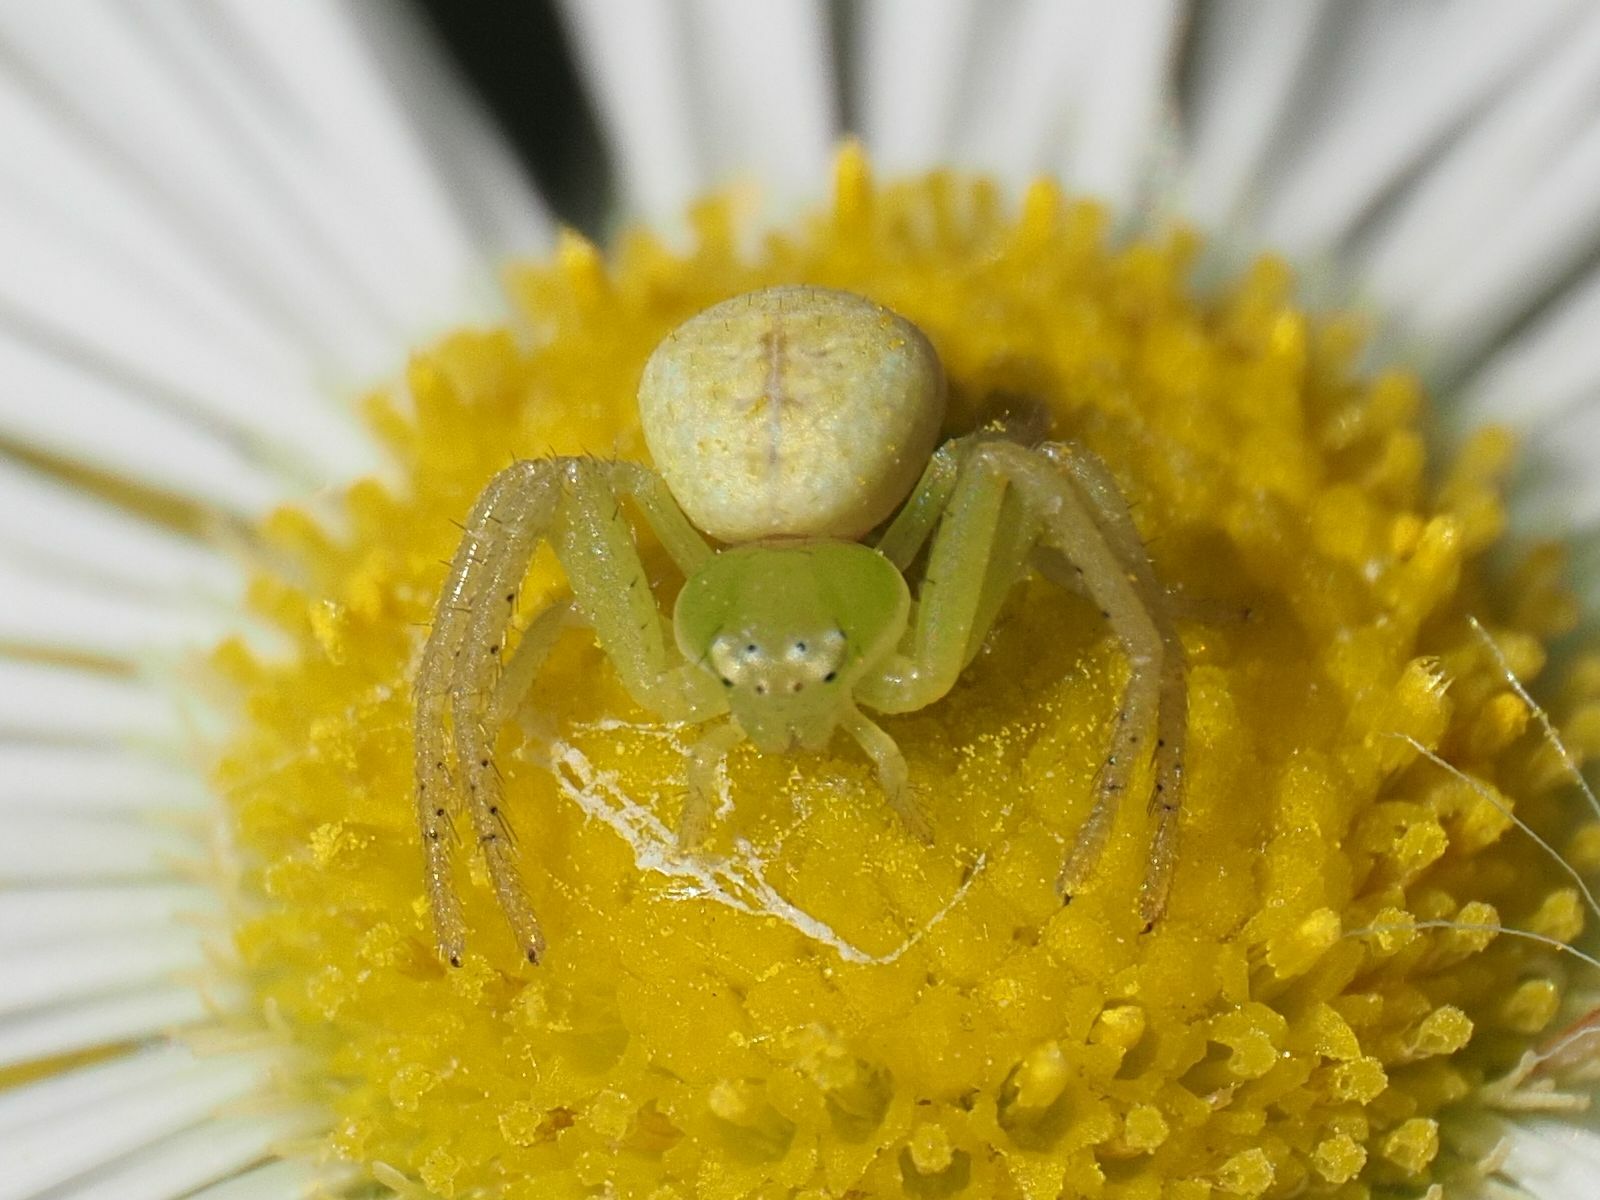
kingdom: Animalia
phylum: Arthropoda
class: Arachnida
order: Araneae
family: Thomisidae
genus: Ebrechtella
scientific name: Ebrechtella tricuspidata
